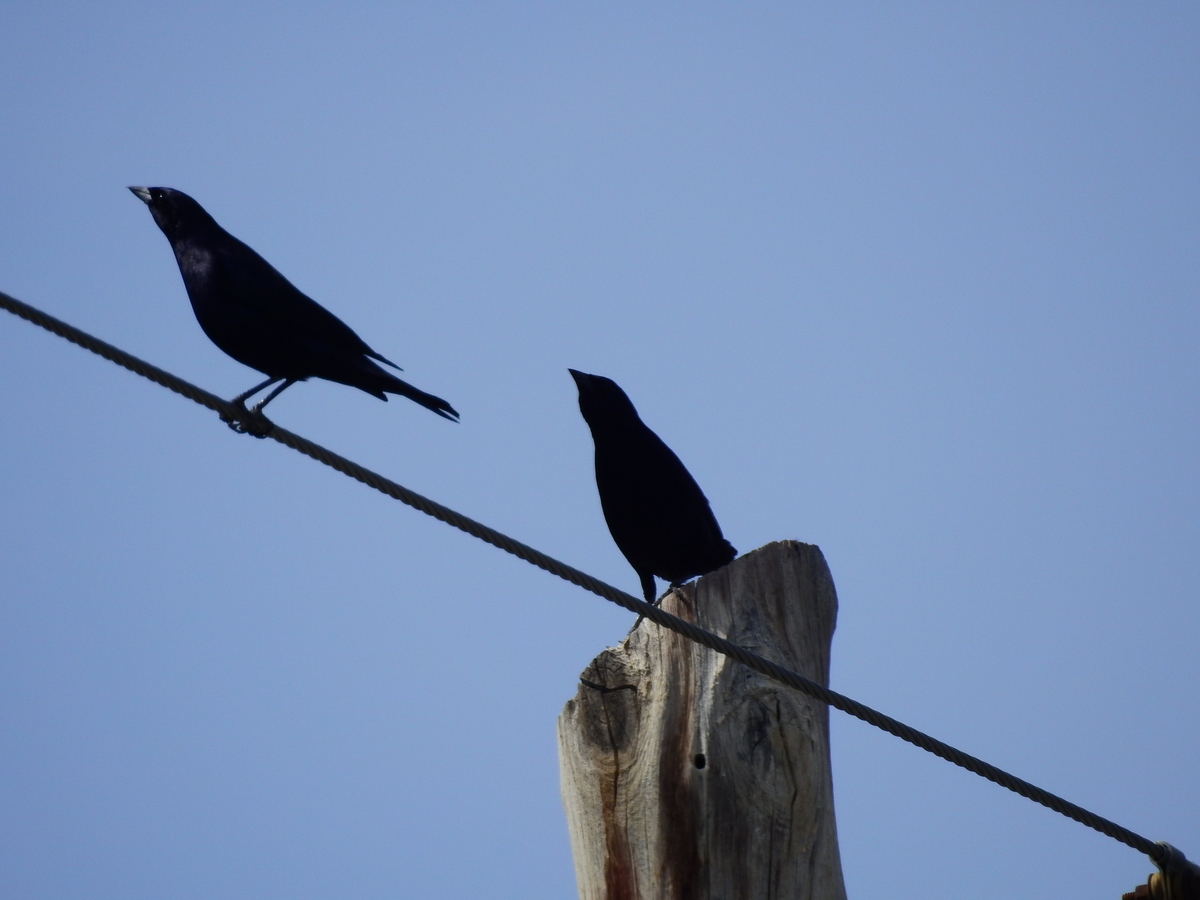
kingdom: Animalia
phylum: Chordata
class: Aves
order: Passeriformes
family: Icteridae
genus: Molothrus
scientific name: Molothrus bonariensis
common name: Shiny cowbird
